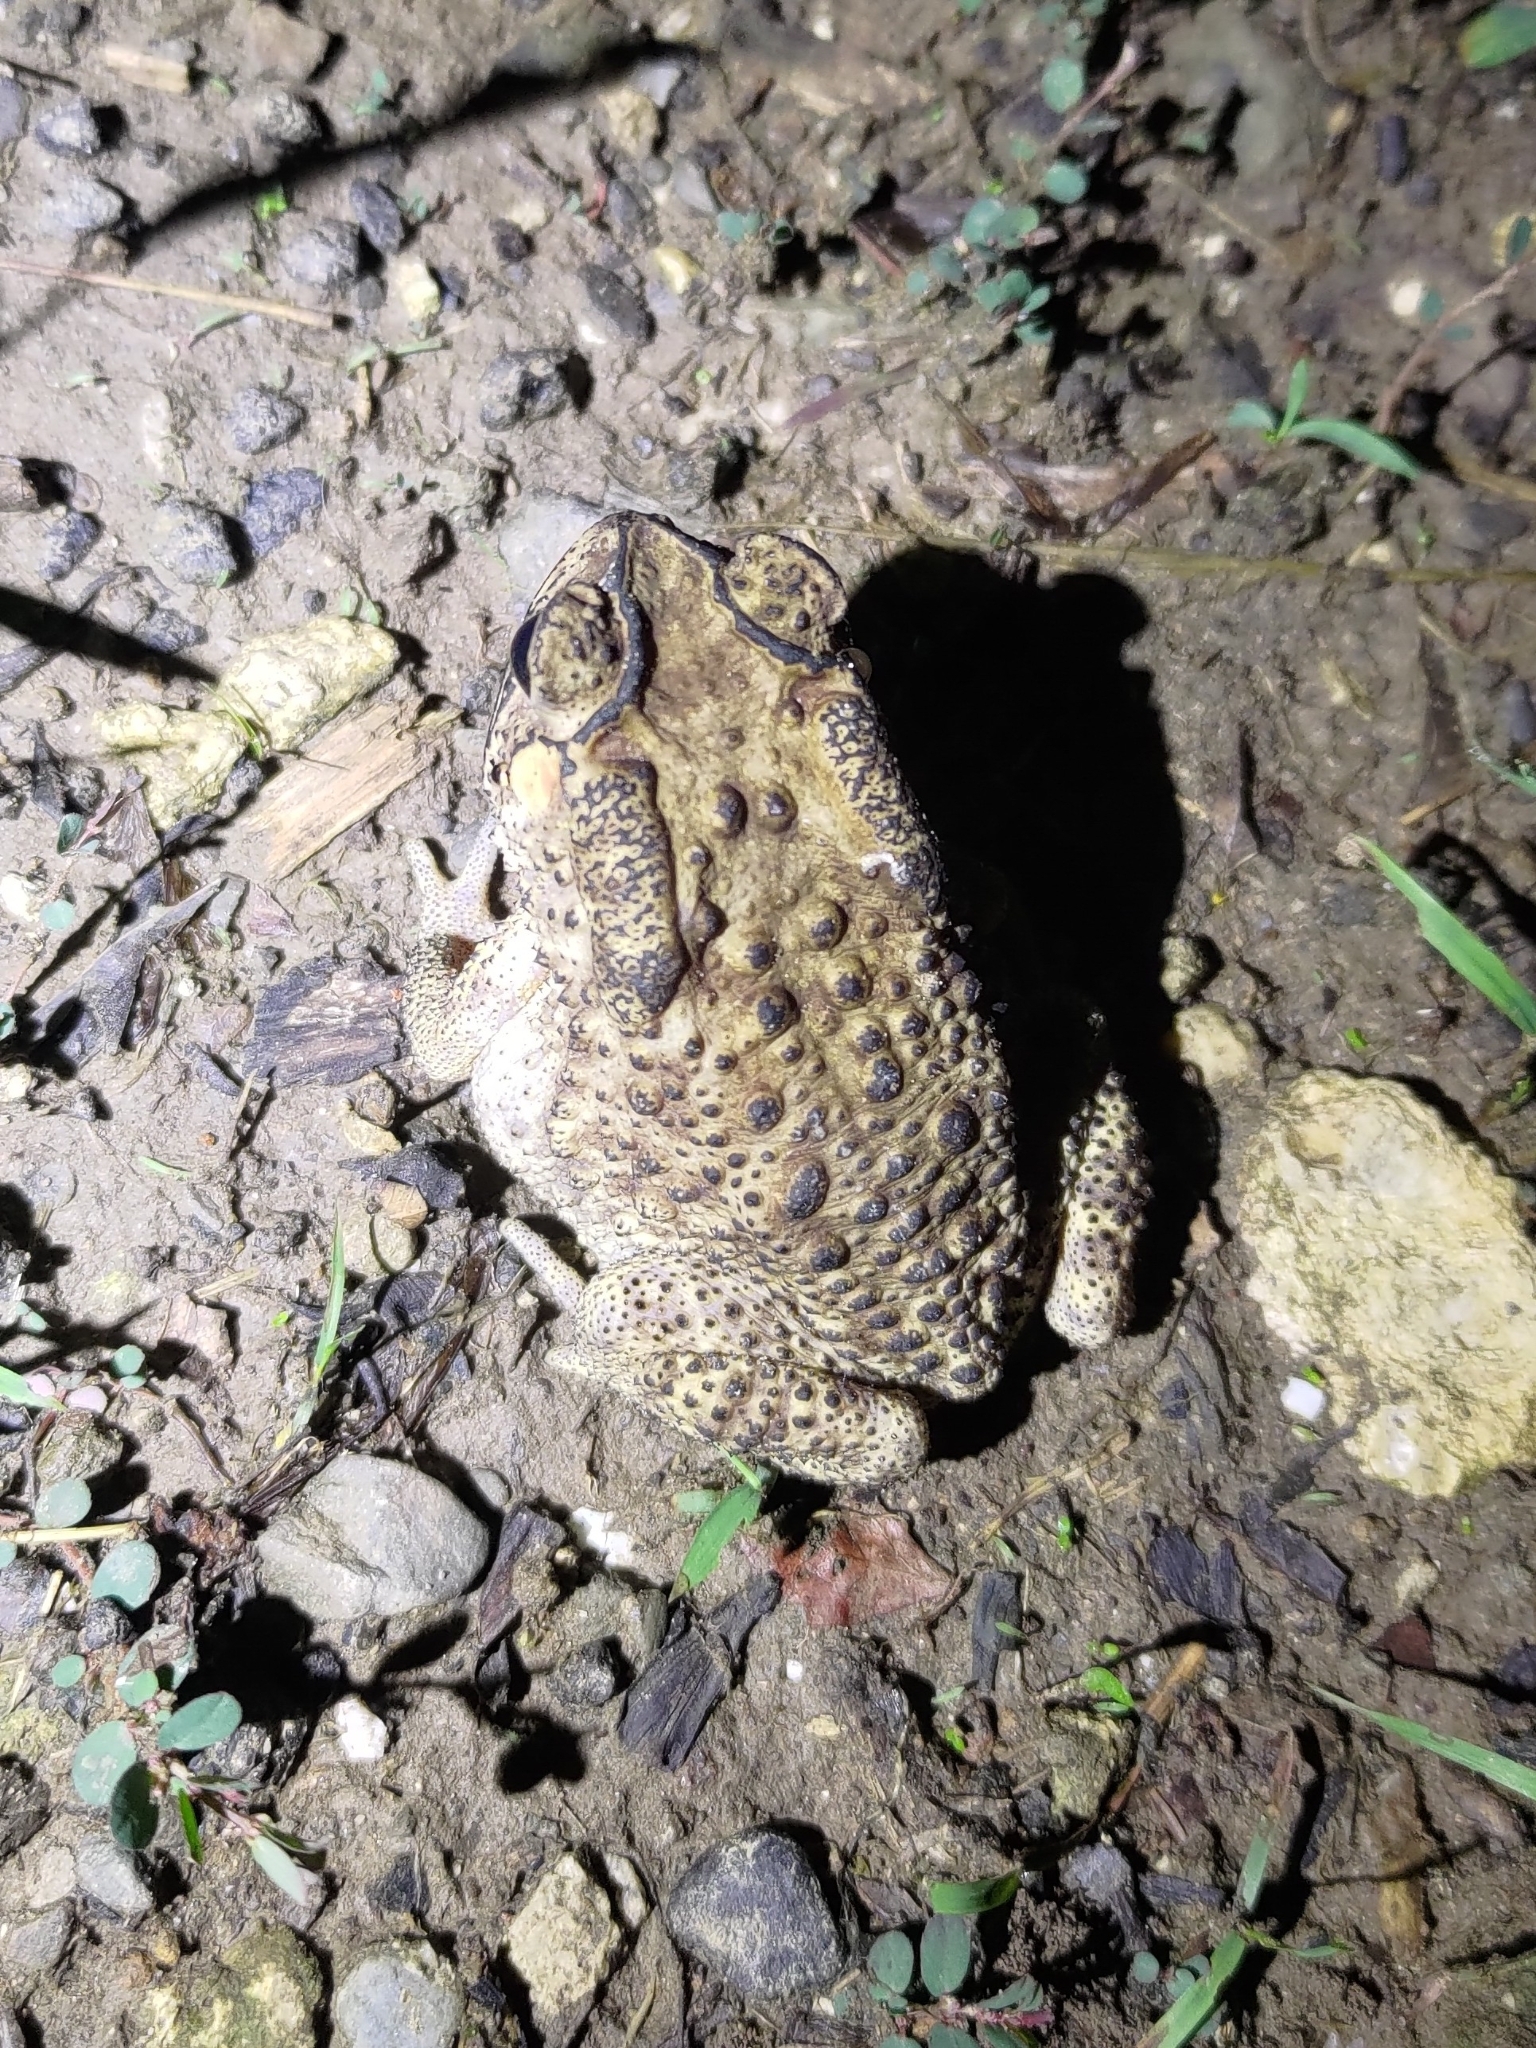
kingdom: Animalia
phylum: Chordata
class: Amphibia
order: Anura
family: Bufonidae
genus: Duttaphrynus
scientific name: Duttaphrynus melanostictus
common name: Common sunda toad
